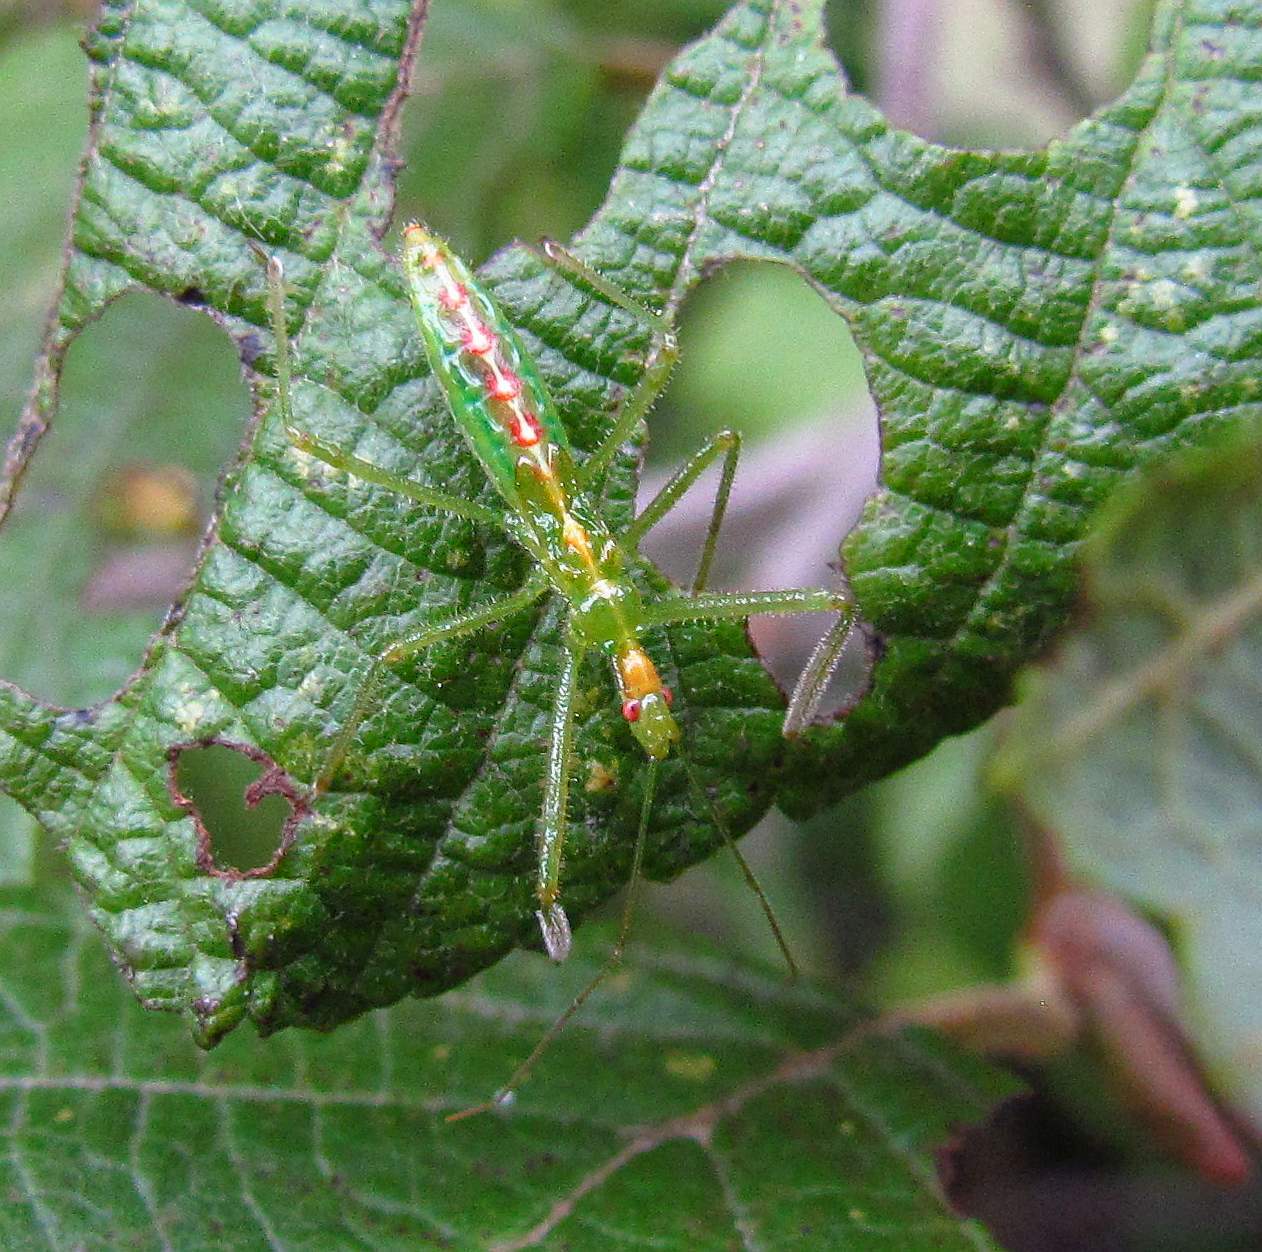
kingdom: Animalia
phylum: Arthropoda
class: Insecta
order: Hemiptera
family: Reduviidae
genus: Zelus
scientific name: Zelus luridus
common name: Pale green assassin bug
